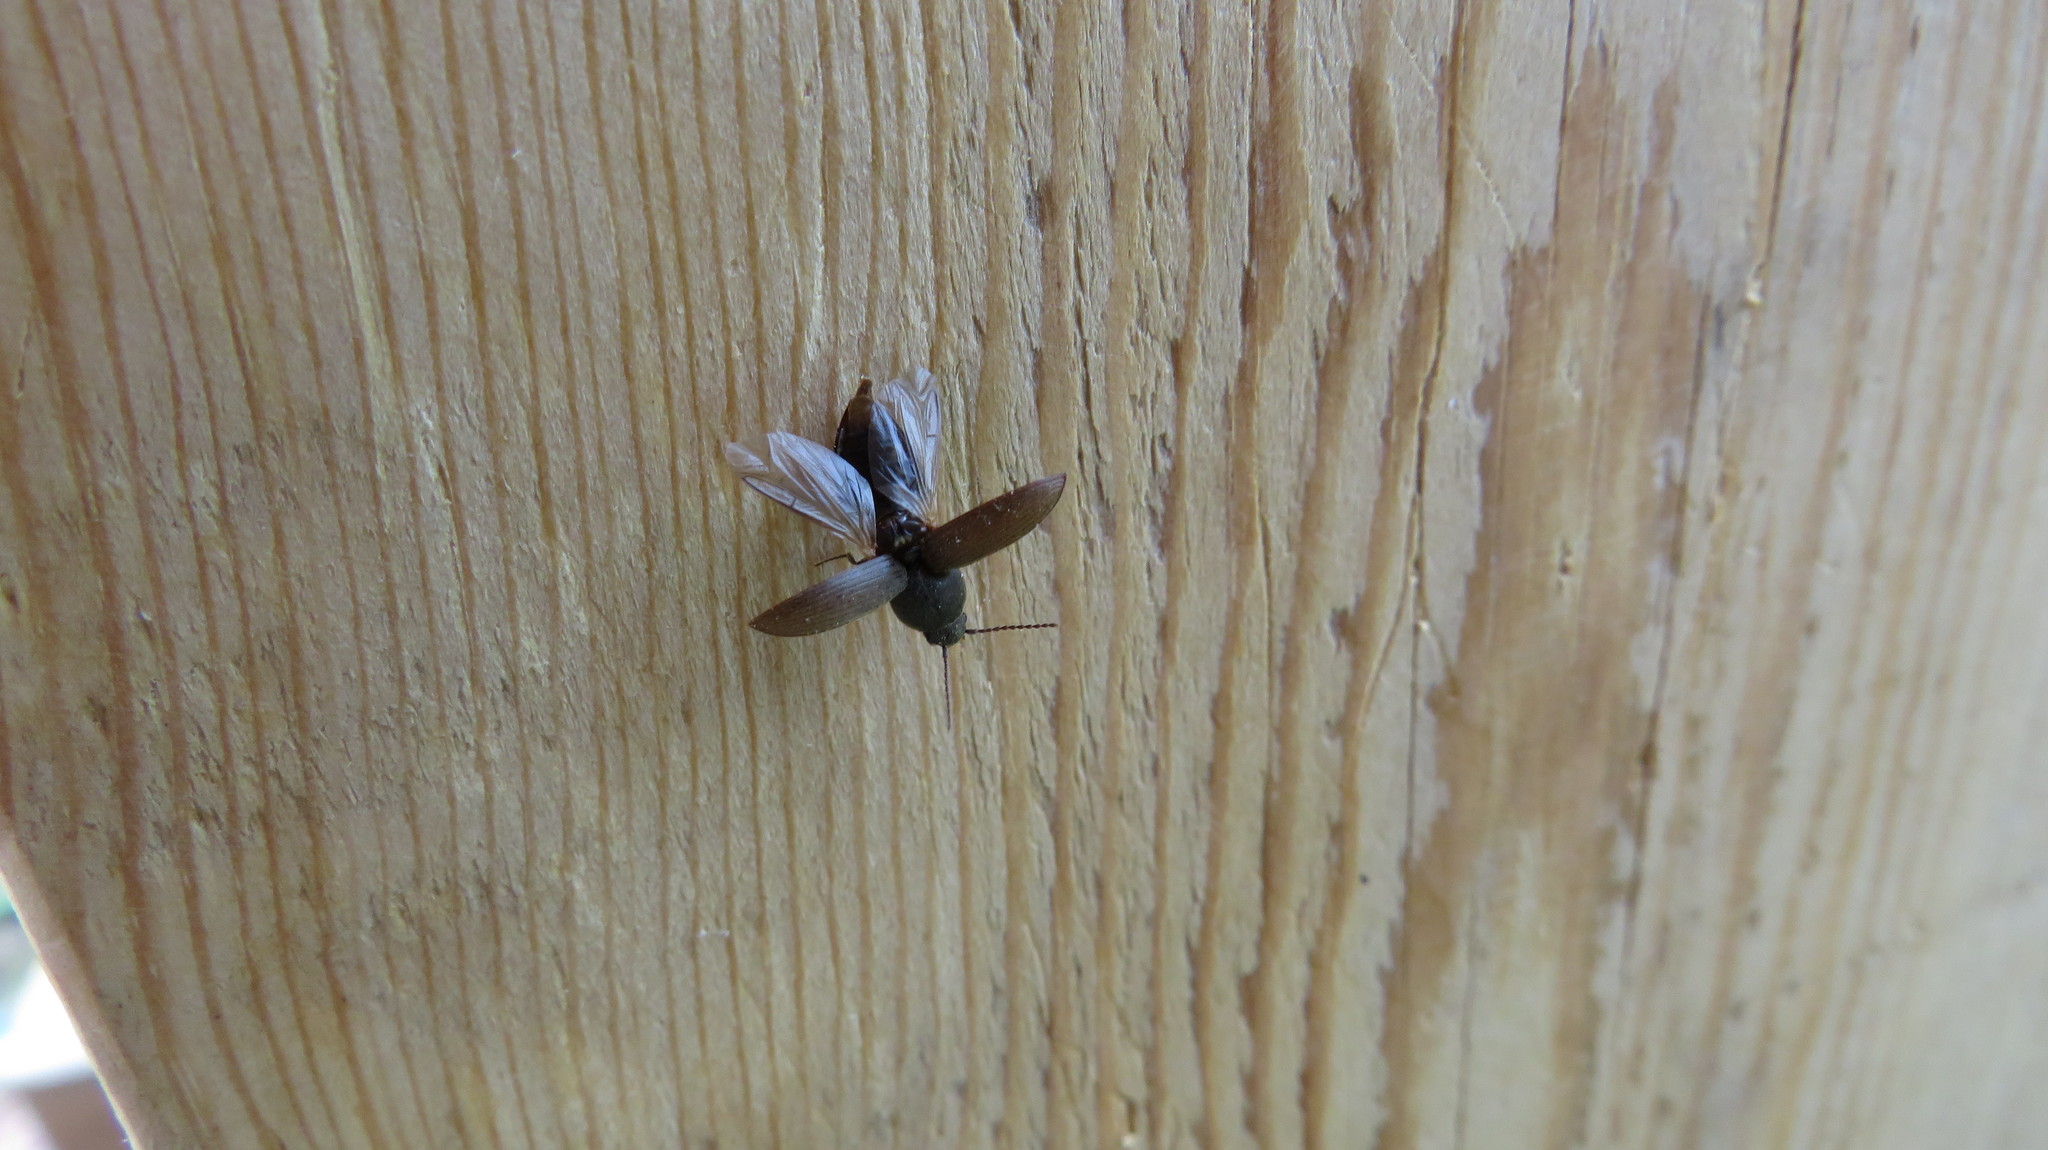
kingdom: Animalia
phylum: Arthropoda
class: Insecta
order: Coleoptera
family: Elateridae
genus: Agriotes
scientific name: Agriotes obscurus
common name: Dusky wireworm
